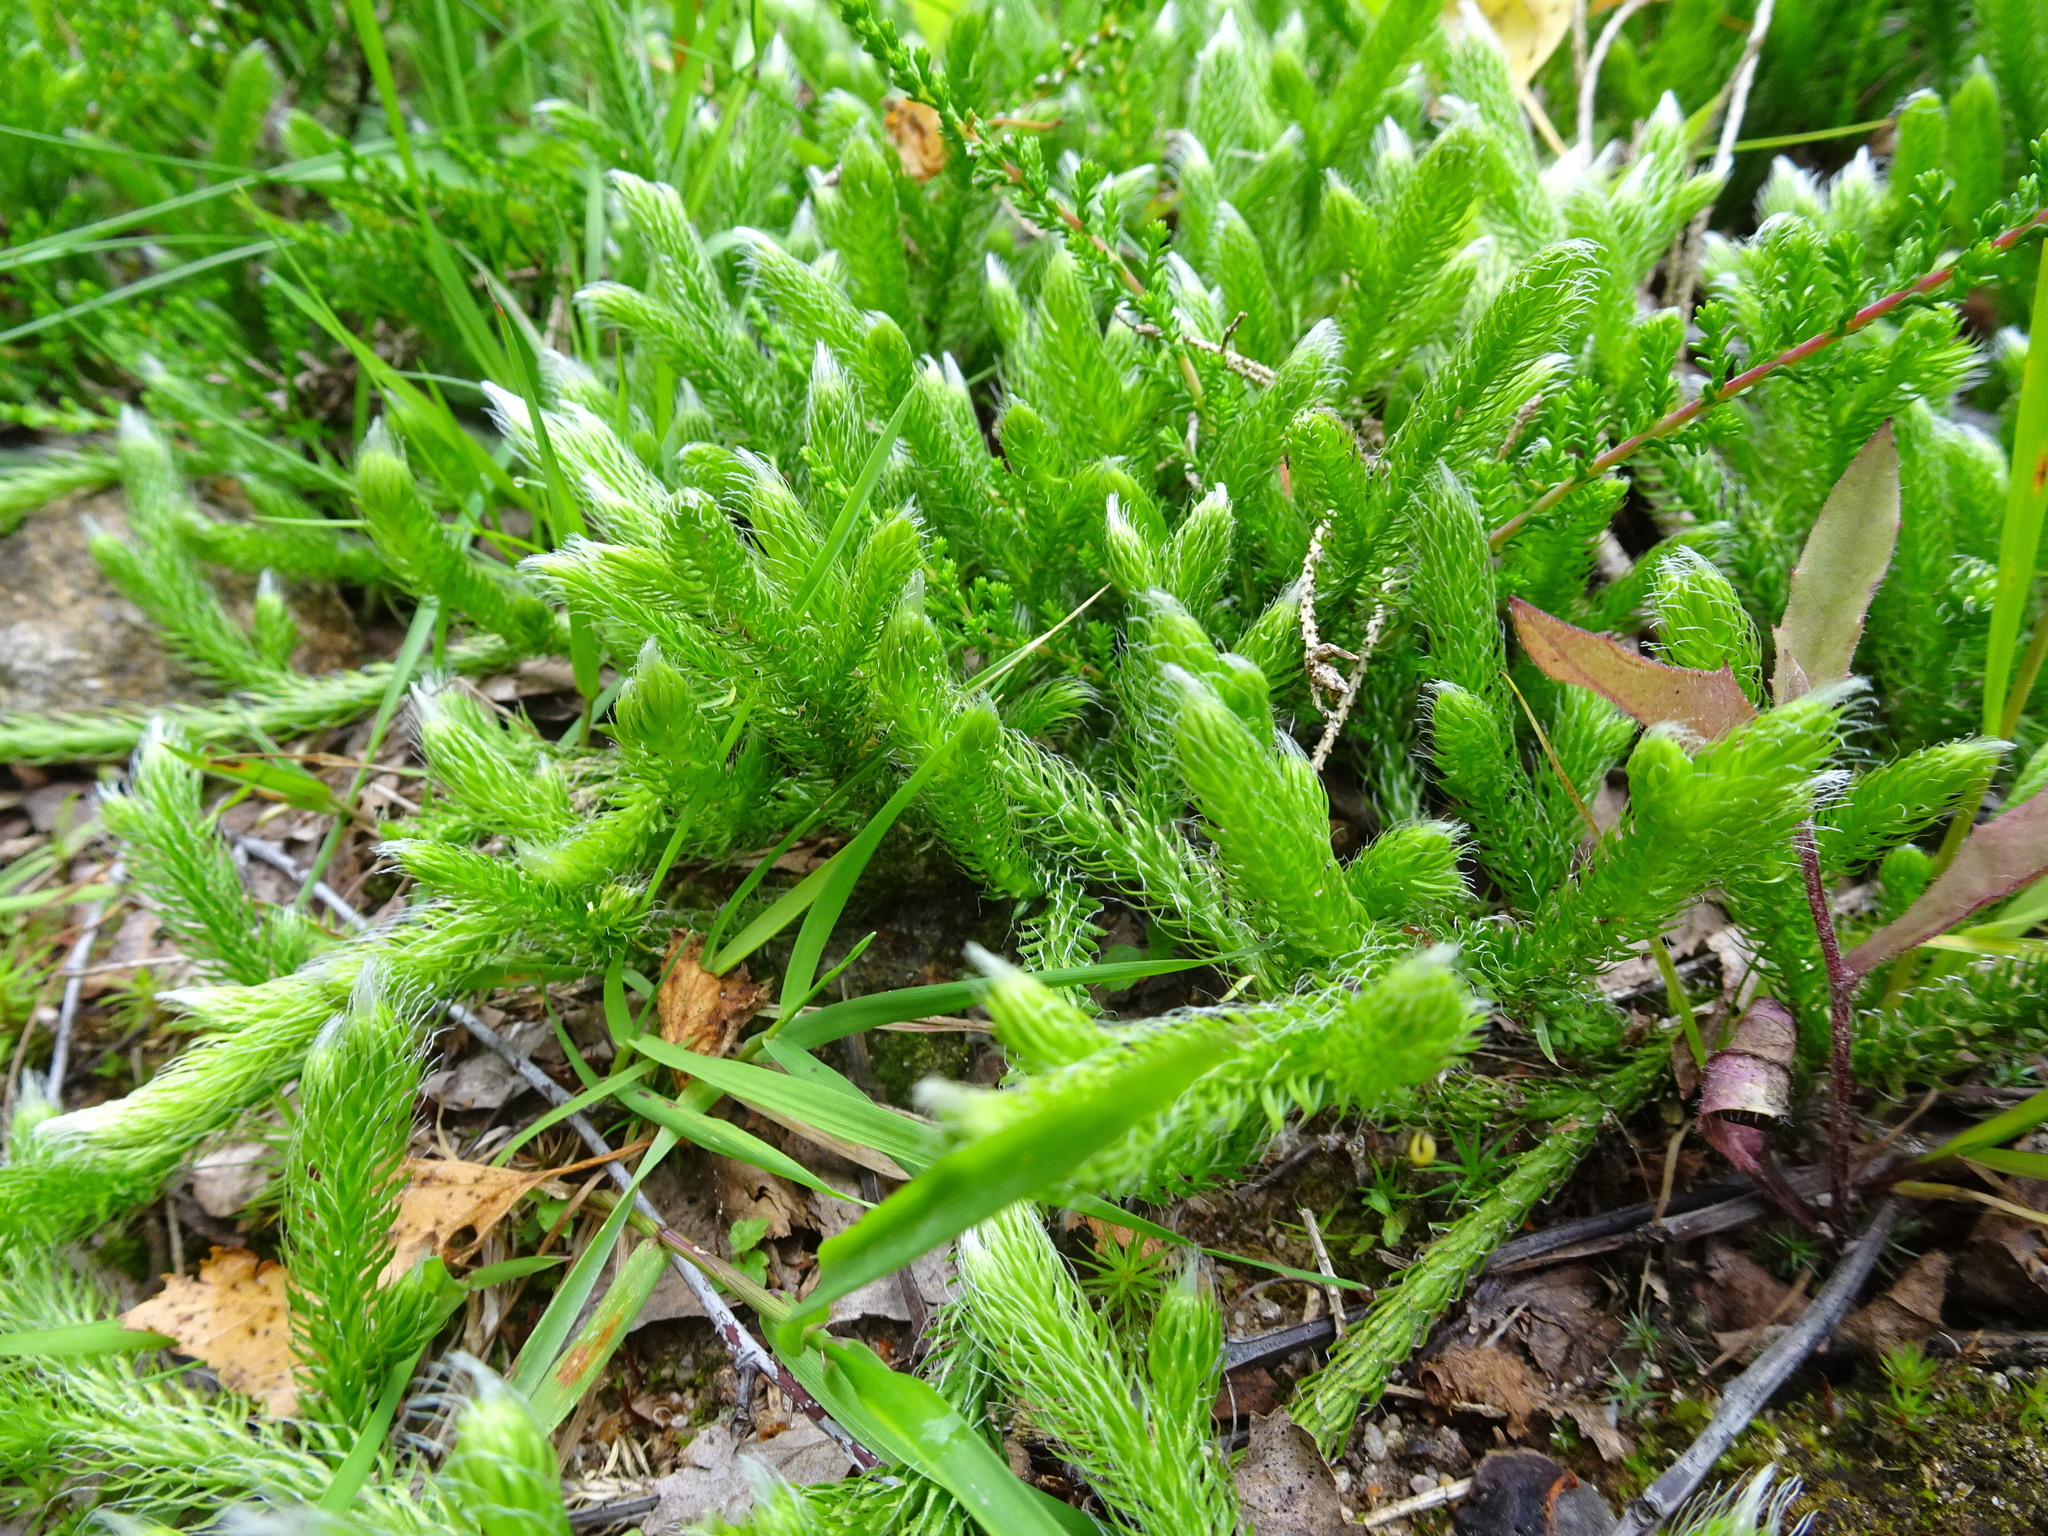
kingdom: Plantae
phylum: Tracheophyta
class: Lycopodiopsida
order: Lycopodiales
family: Lycopodiaceae
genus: Lycopodium
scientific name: Lycopodium clavatum
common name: Stag's-horn clubmoss
